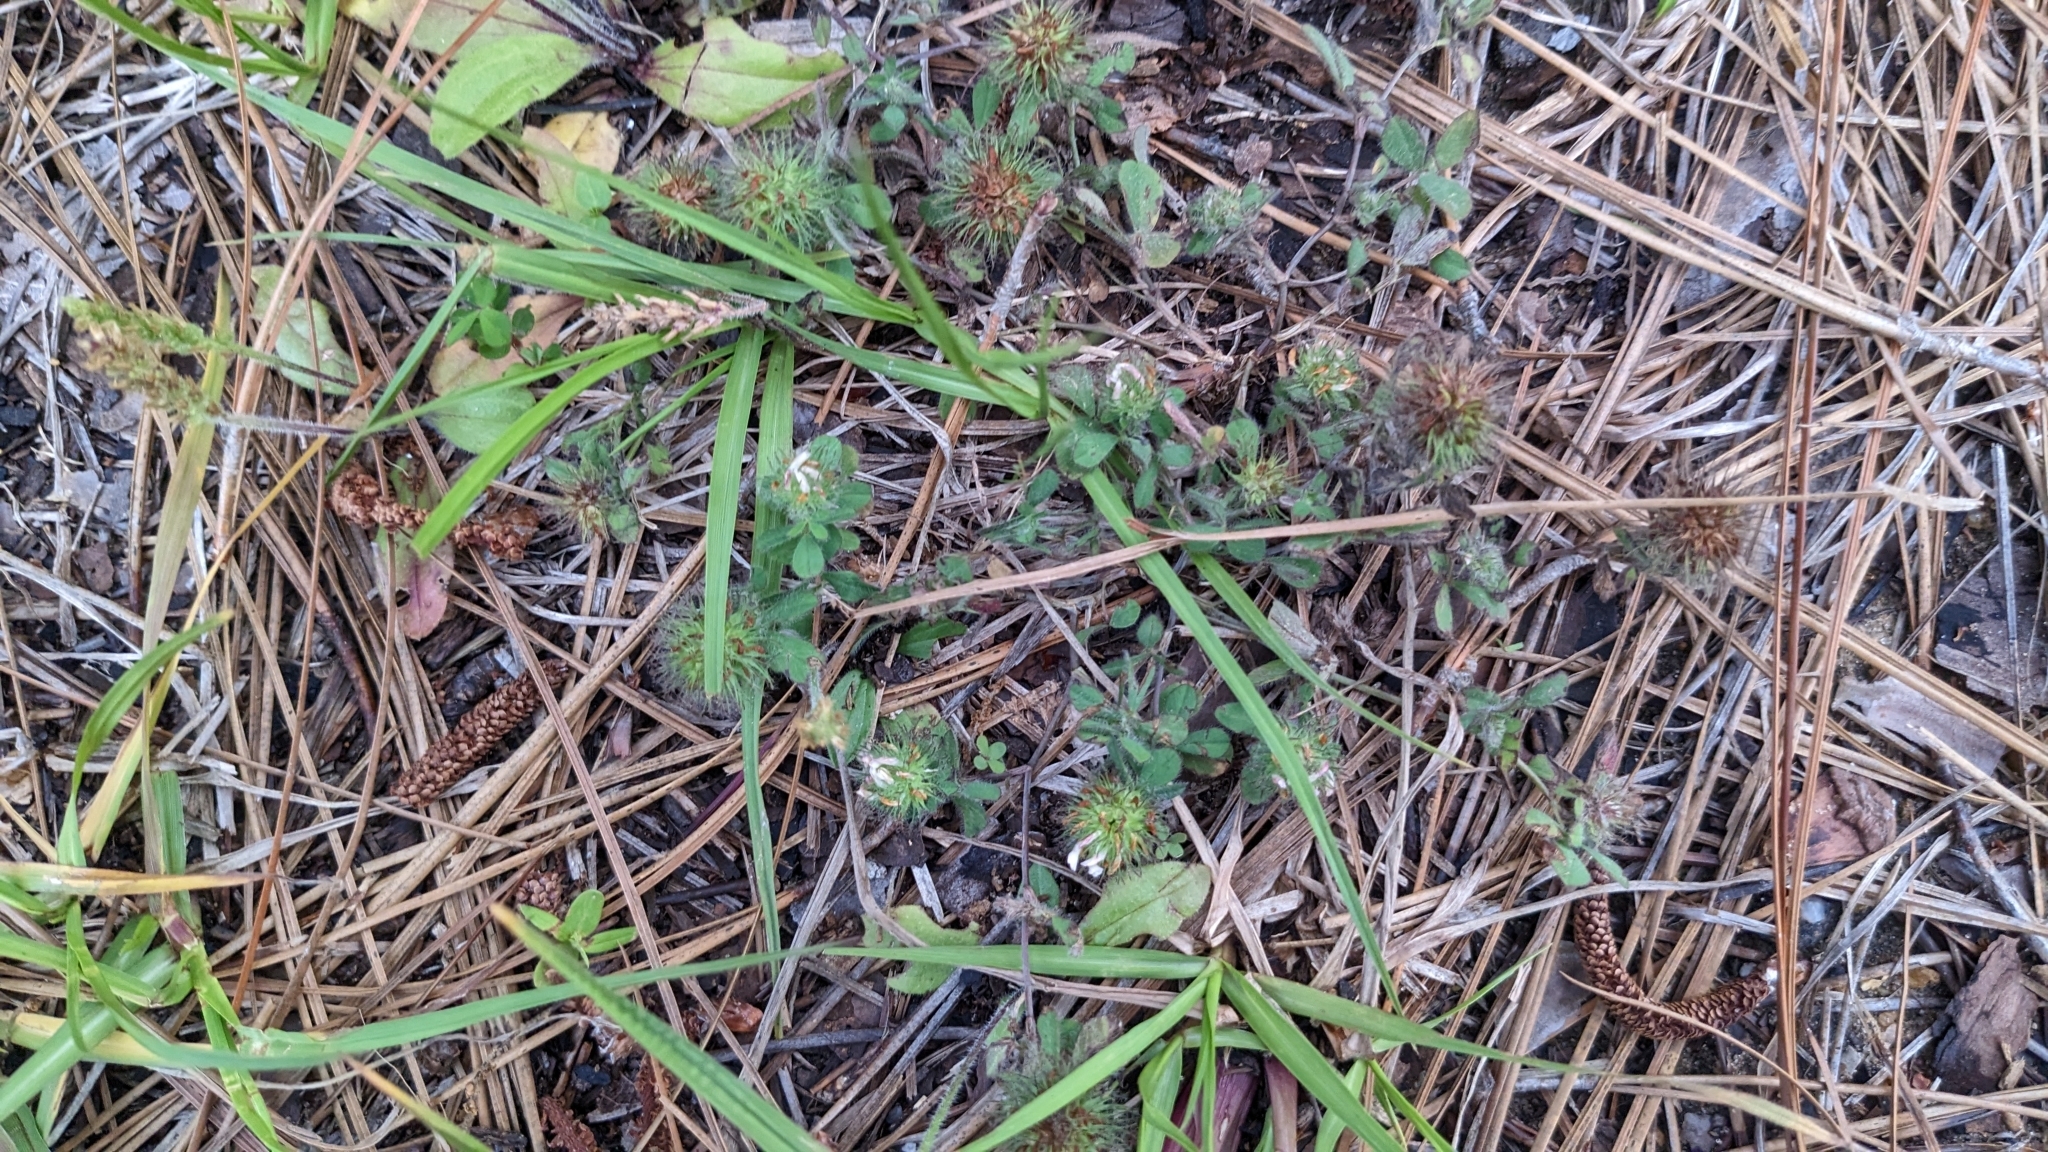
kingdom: Plantae
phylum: Tracheophyta
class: Magnoliopsida
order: Fabales
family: Fabaceae
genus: Trifolium
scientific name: Trifolium lappaceum
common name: Bur clover
